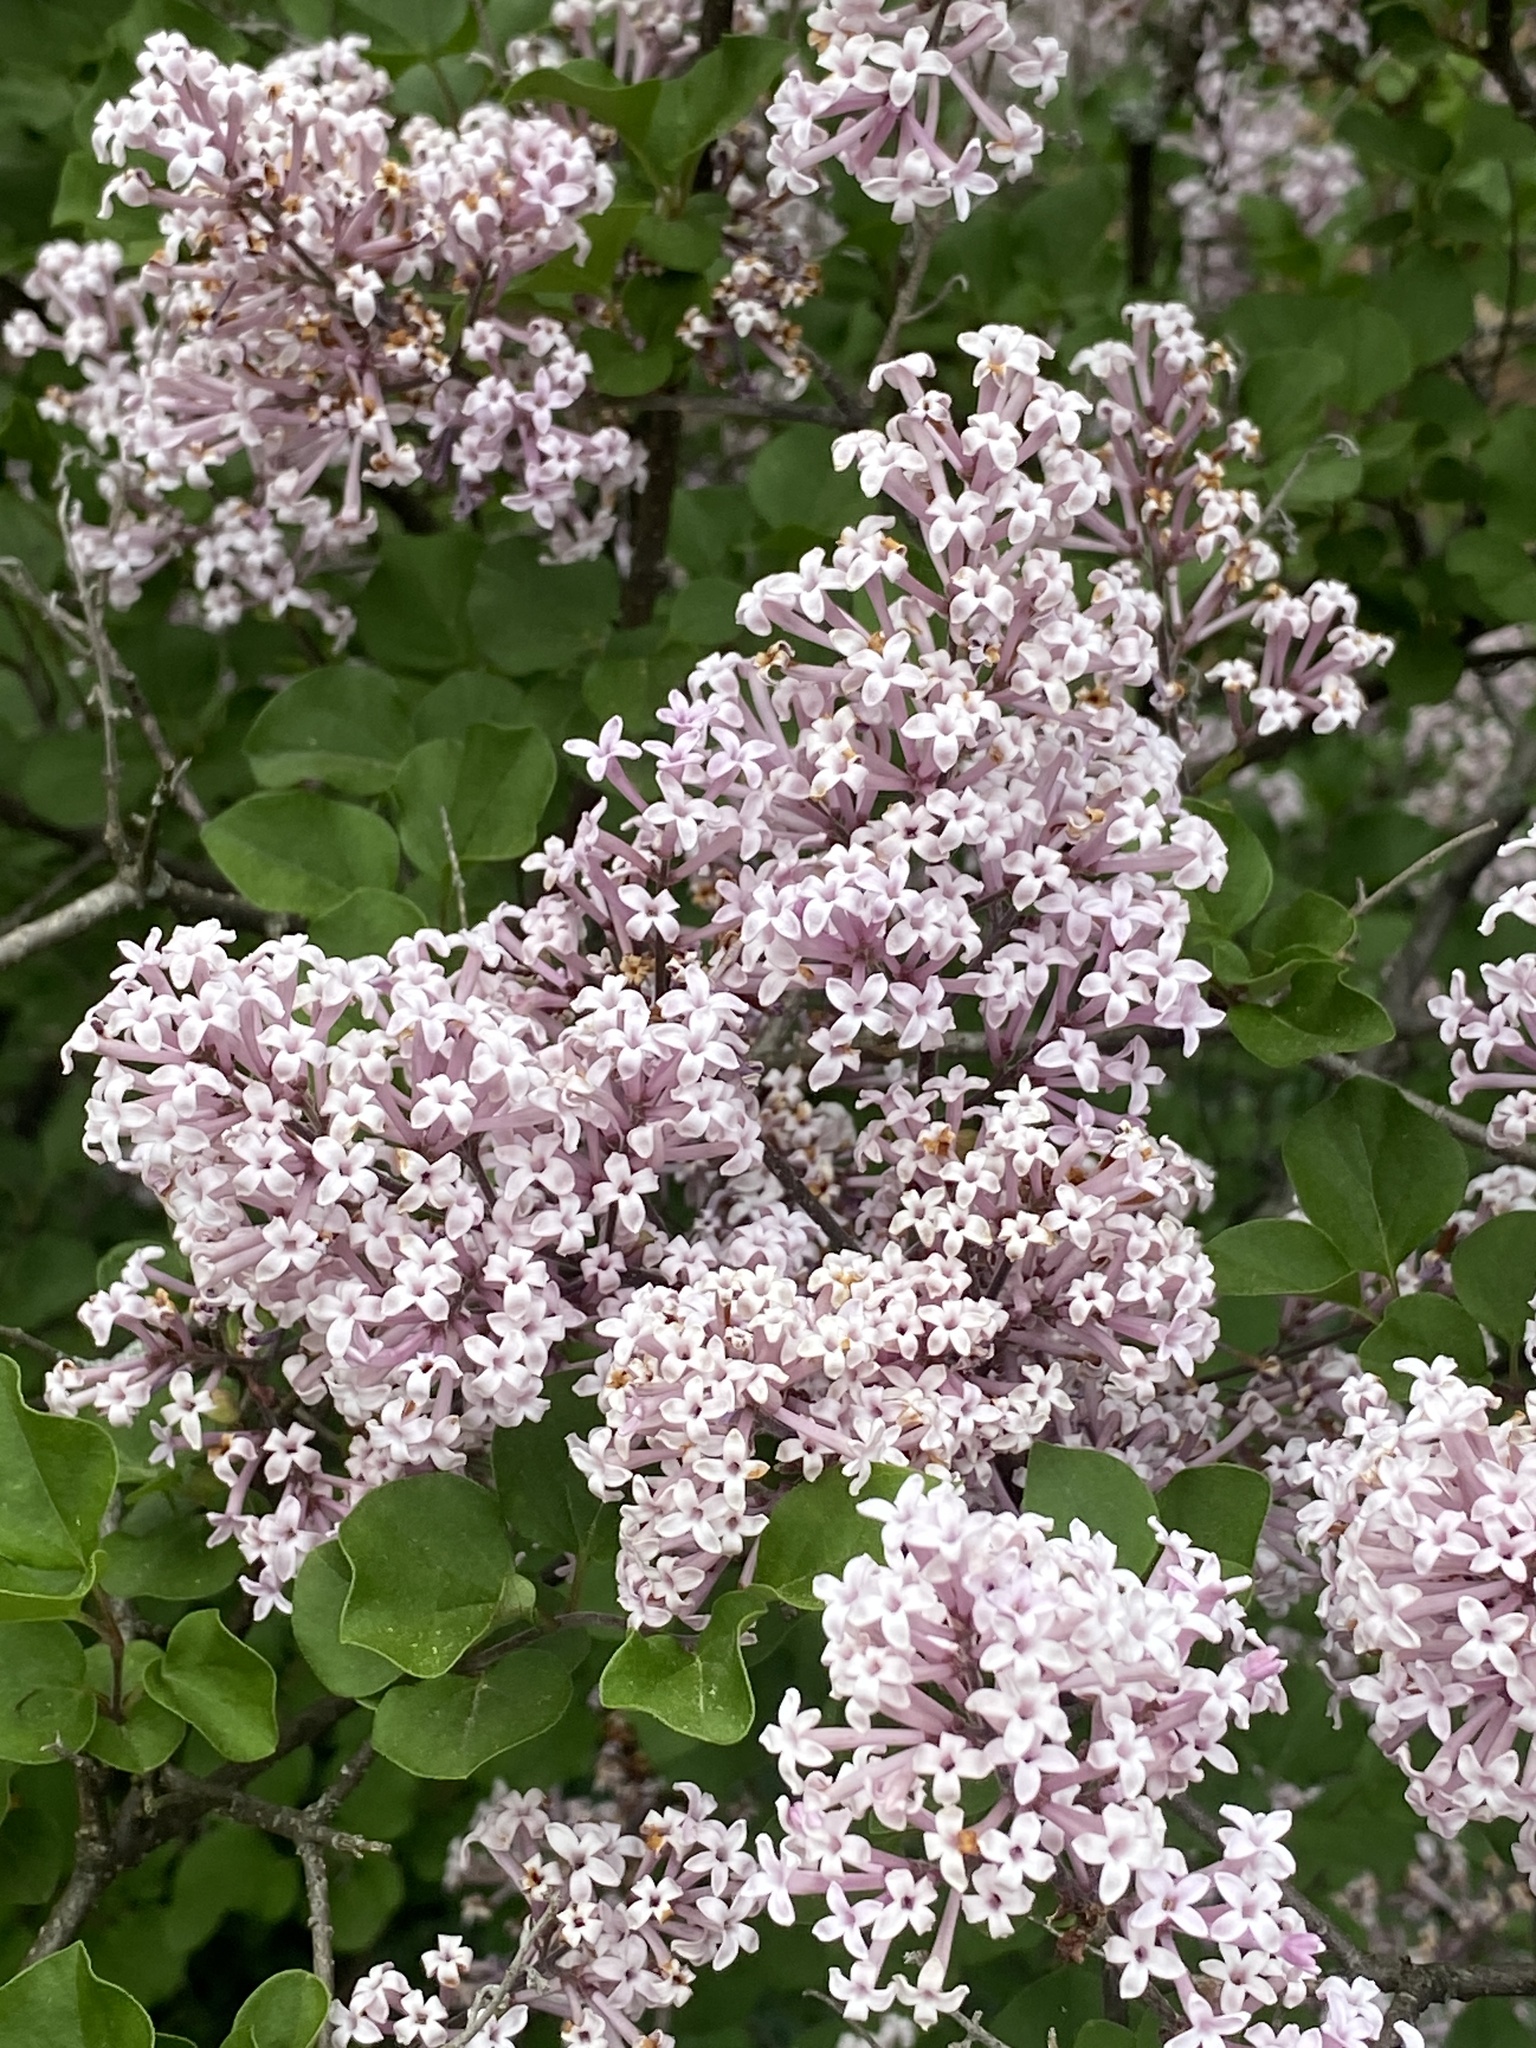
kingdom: Plantae
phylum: Tracheophyta
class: Magnoliopsida
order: Lamiales
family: Oleaceae
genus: Syringa
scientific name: Syringa pubescens
